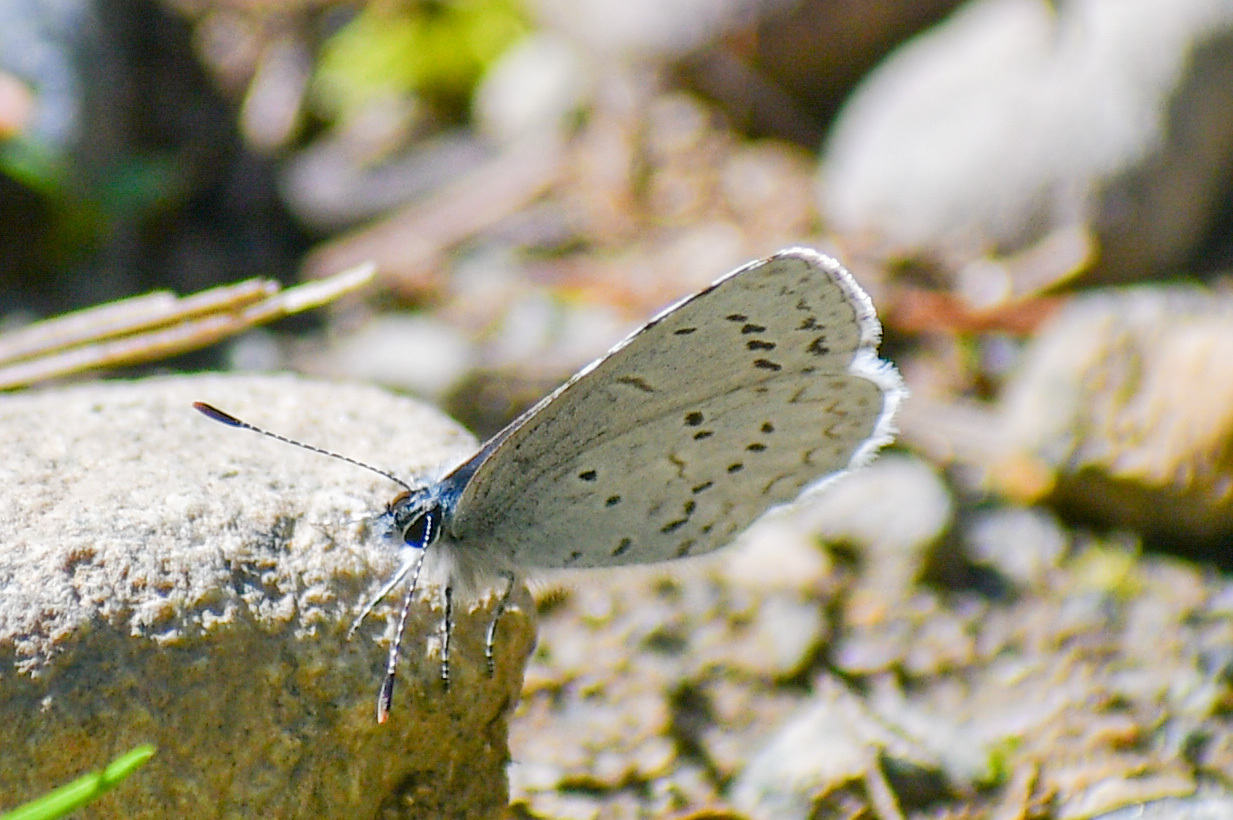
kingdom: Animalia
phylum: Arthropoda
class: Insecta
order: Lepidoptera
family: Lycaenidae
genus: Celastrina
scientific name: Celastrina ladon
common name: Spring azure
